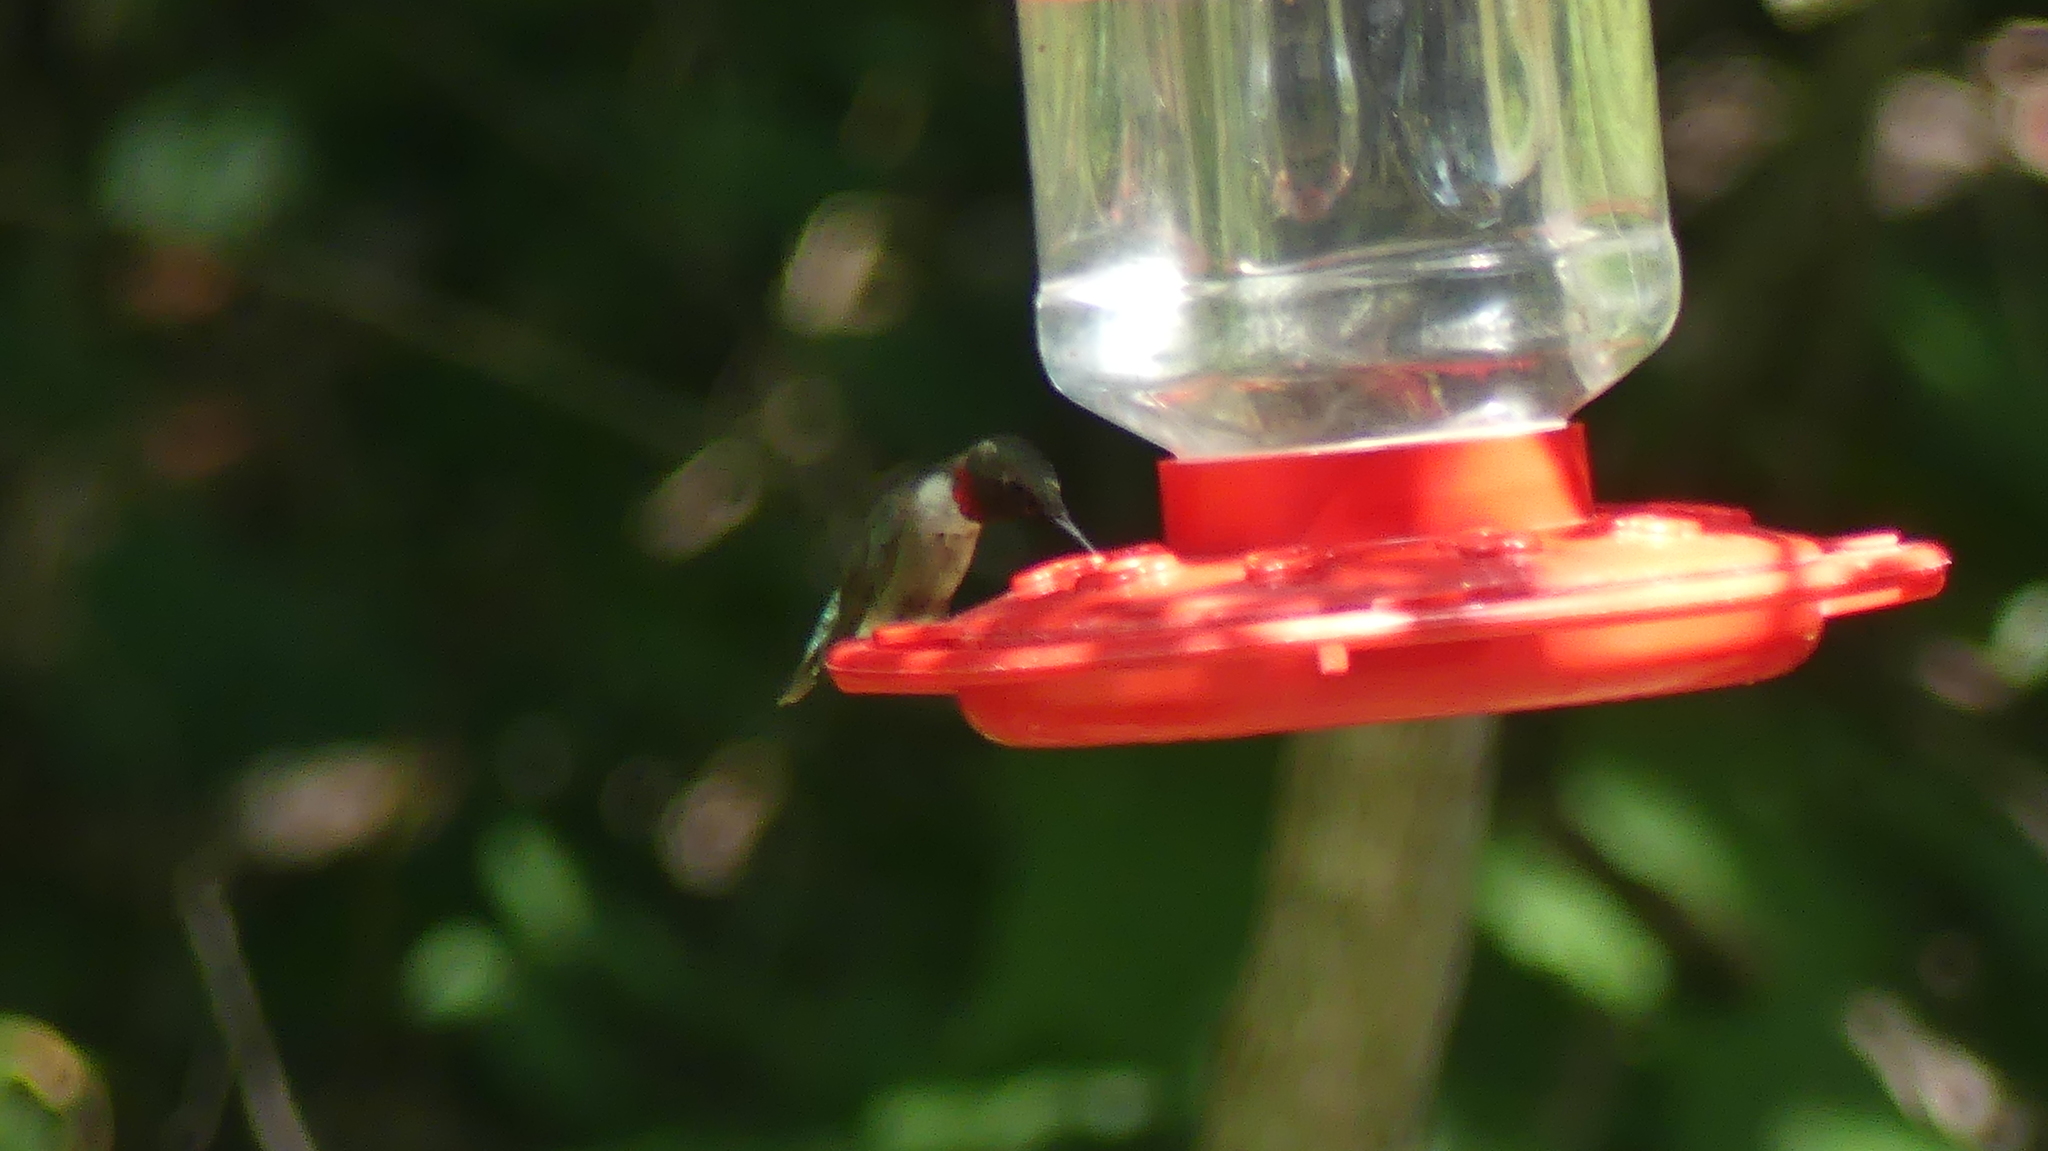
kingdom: Animalia
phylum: Chordata
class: Aves
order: Apodiformes
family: Trochilidae
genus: Archilochus
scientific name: Archilochus colubris
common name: Ruby-throated hummingbird
